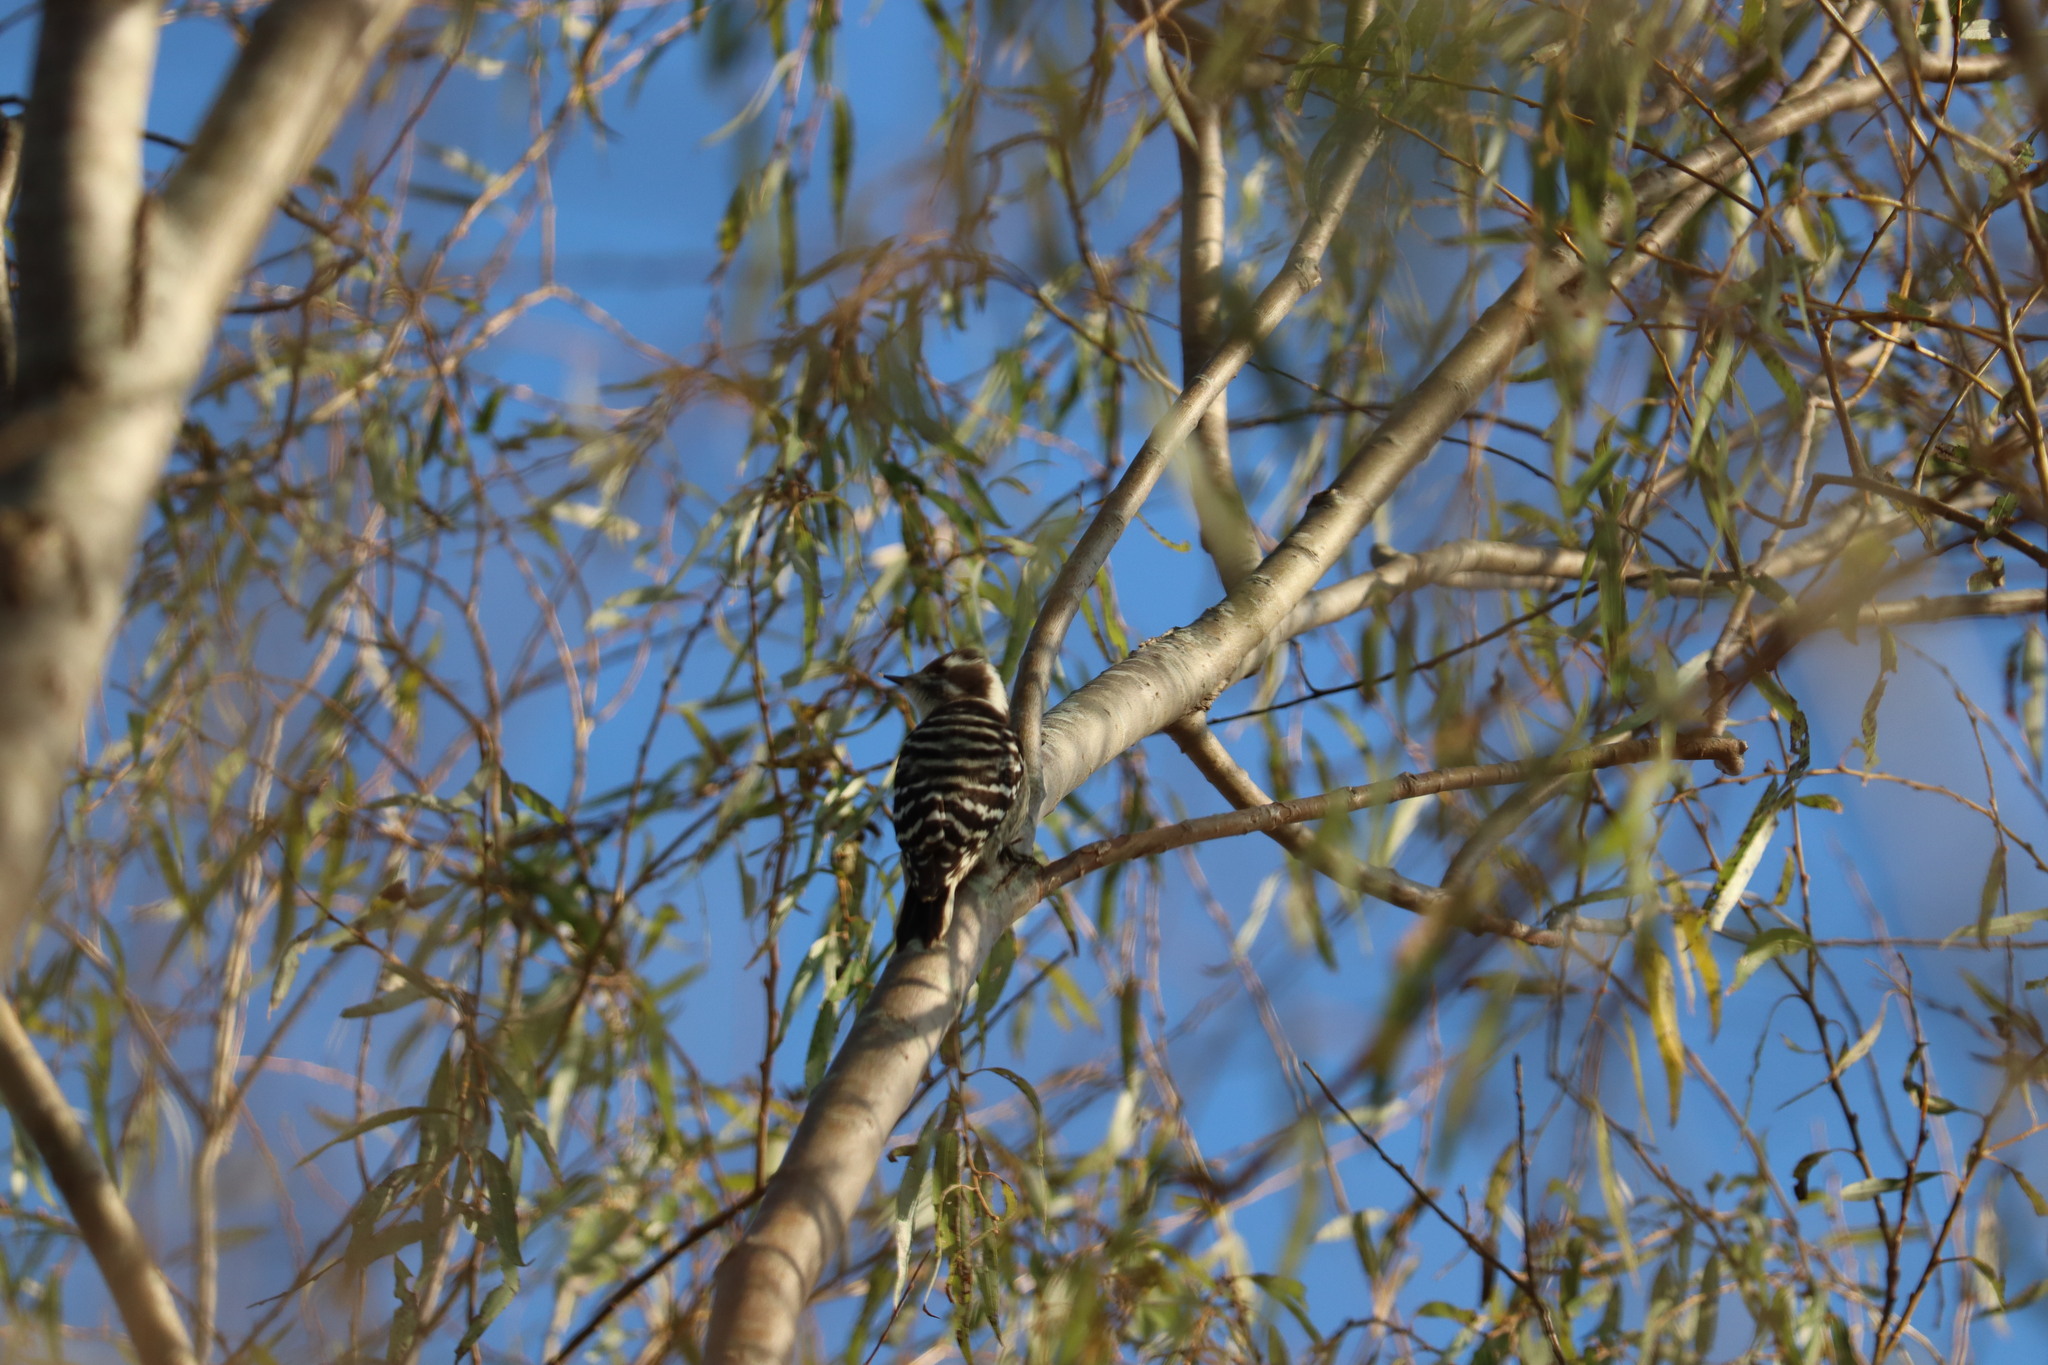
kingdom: Animalia
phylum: Chordata
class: Aves
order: Piciformes
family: Picidae
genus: Yungipicus
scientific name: Yungipicus kizuki
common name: Japanese pygmy woodpecker
